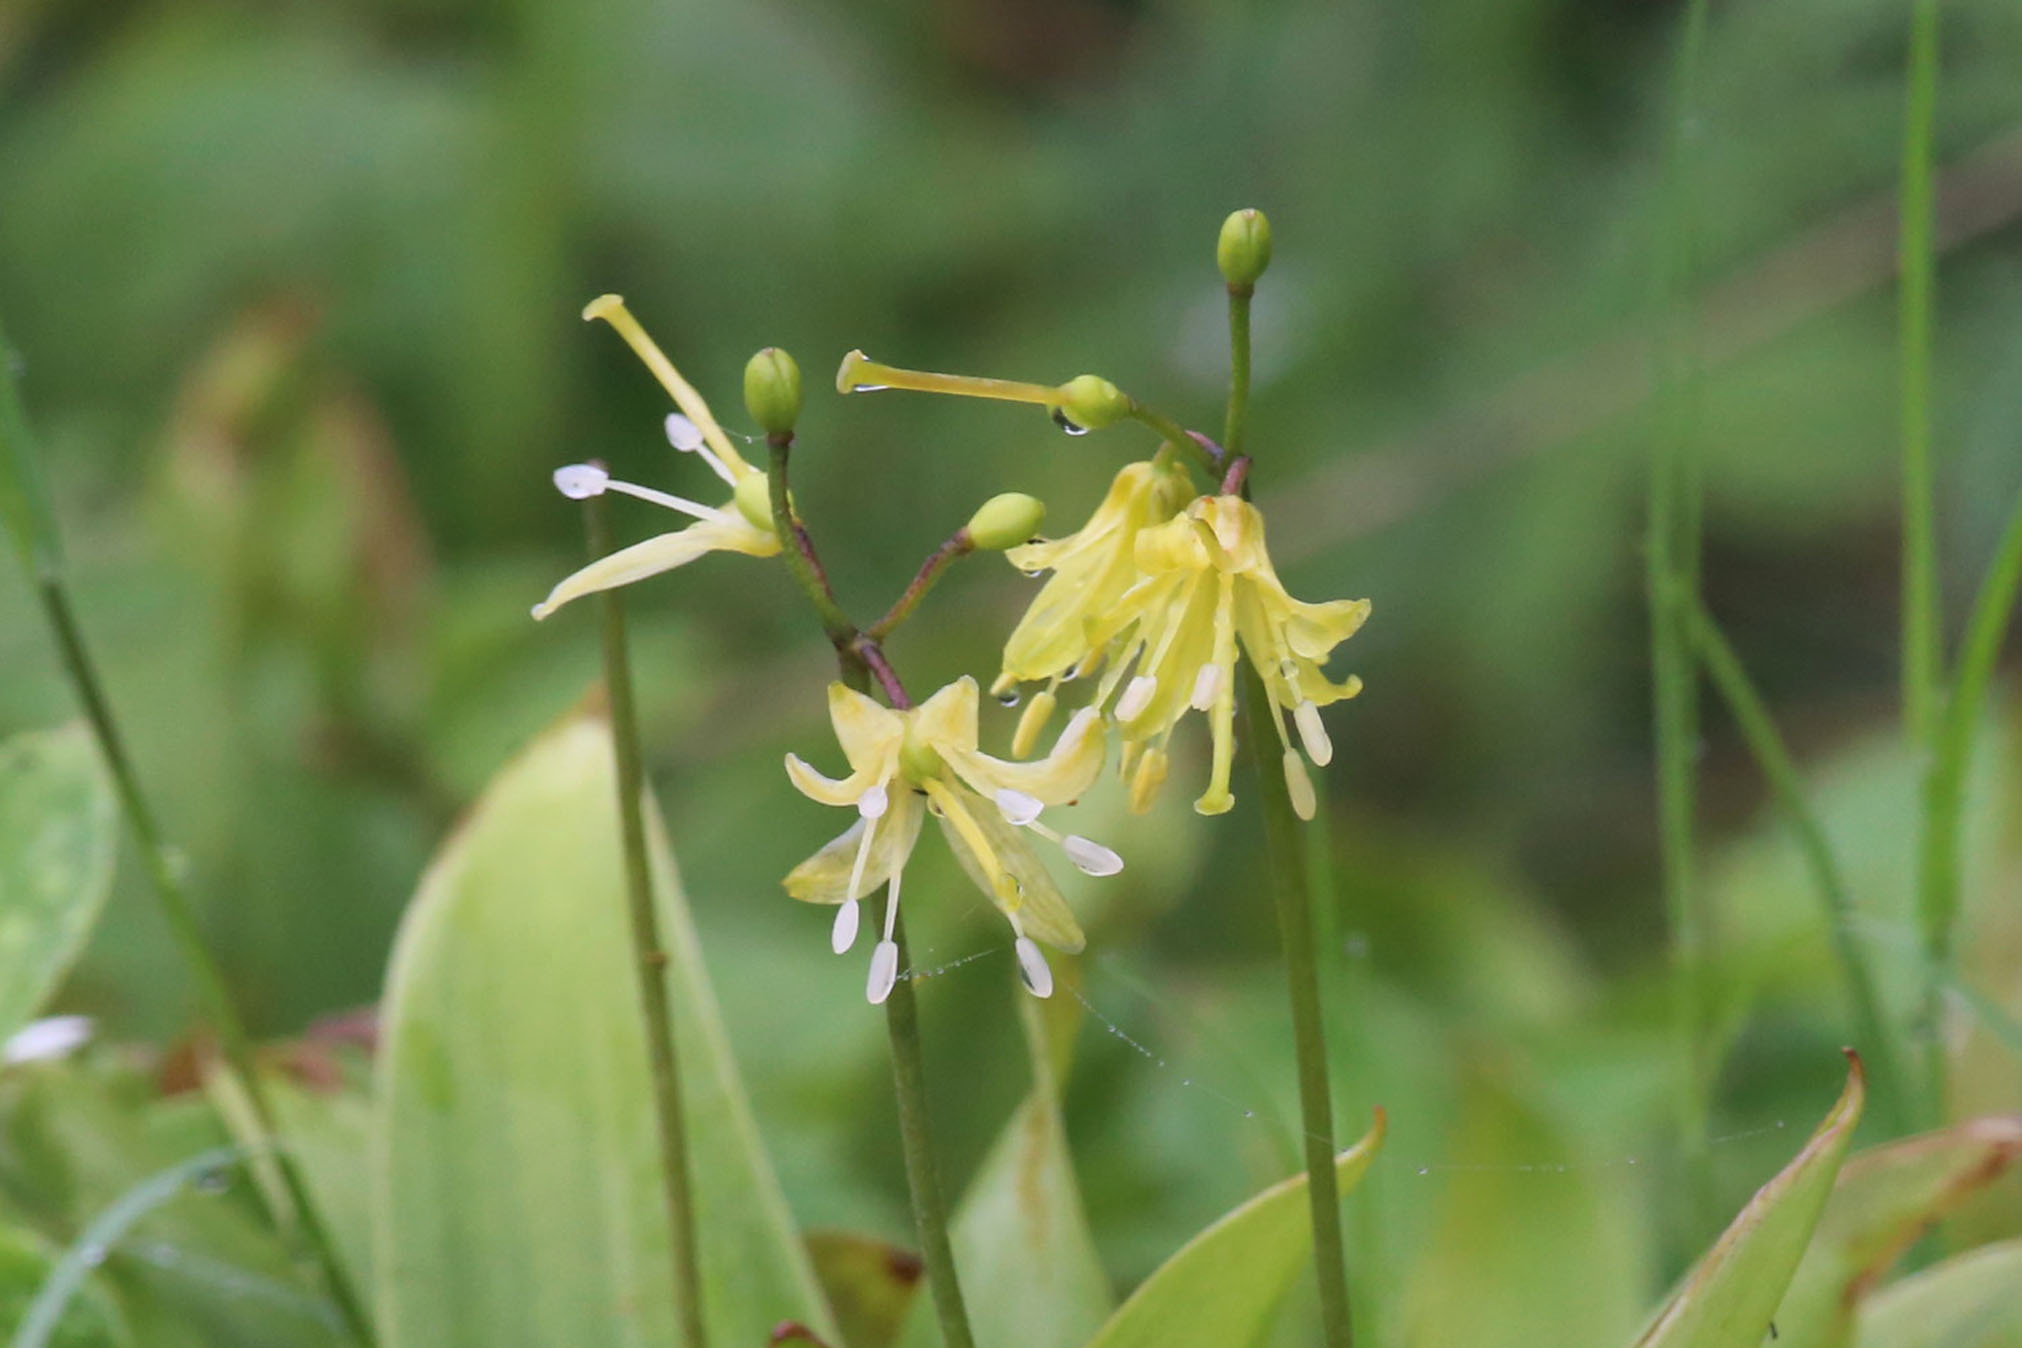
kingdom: Plantae
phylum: Tracheophyta
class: Liliopsida
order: Liliales
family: Liliaceae
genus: Clintonia
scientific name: Clintonia borealis
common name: Yellow clintonia
